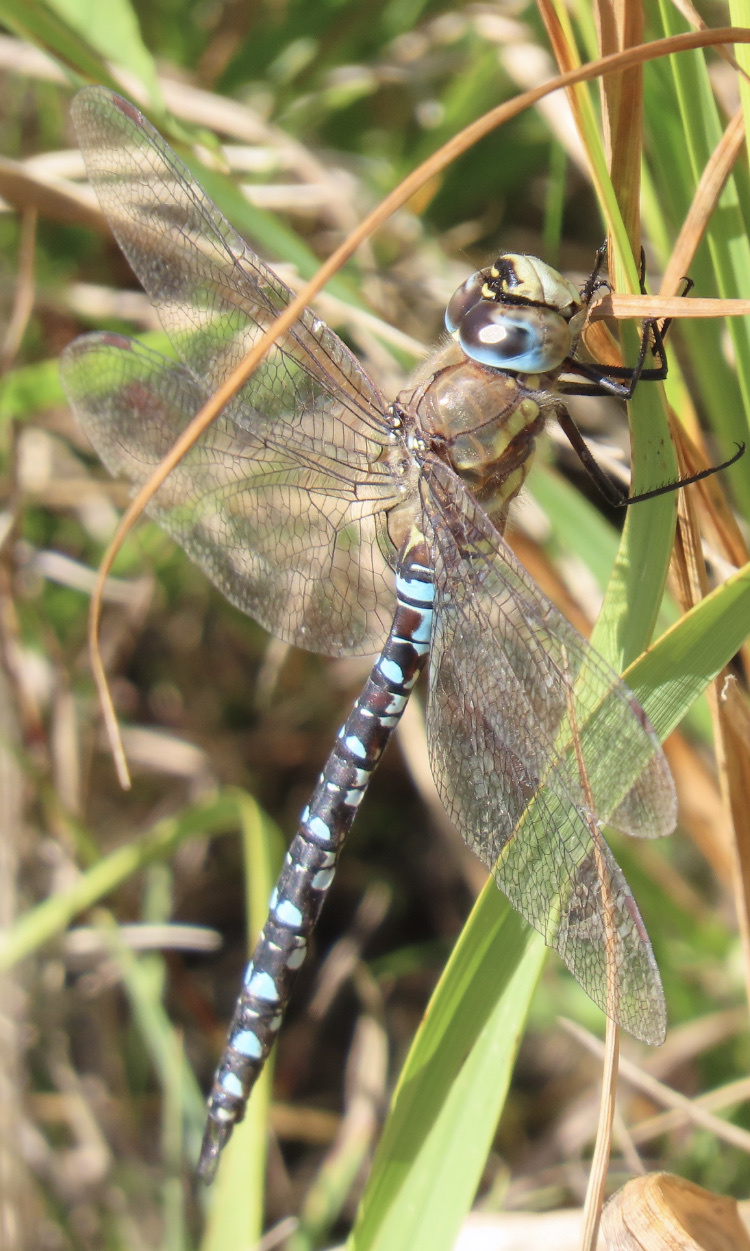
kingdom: Animalia
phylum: Arthropoda
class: Insecta
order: Odonata
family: Aeshnidae
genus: Aeshna
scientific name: Aeshna mixta
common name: Migrant hawker
